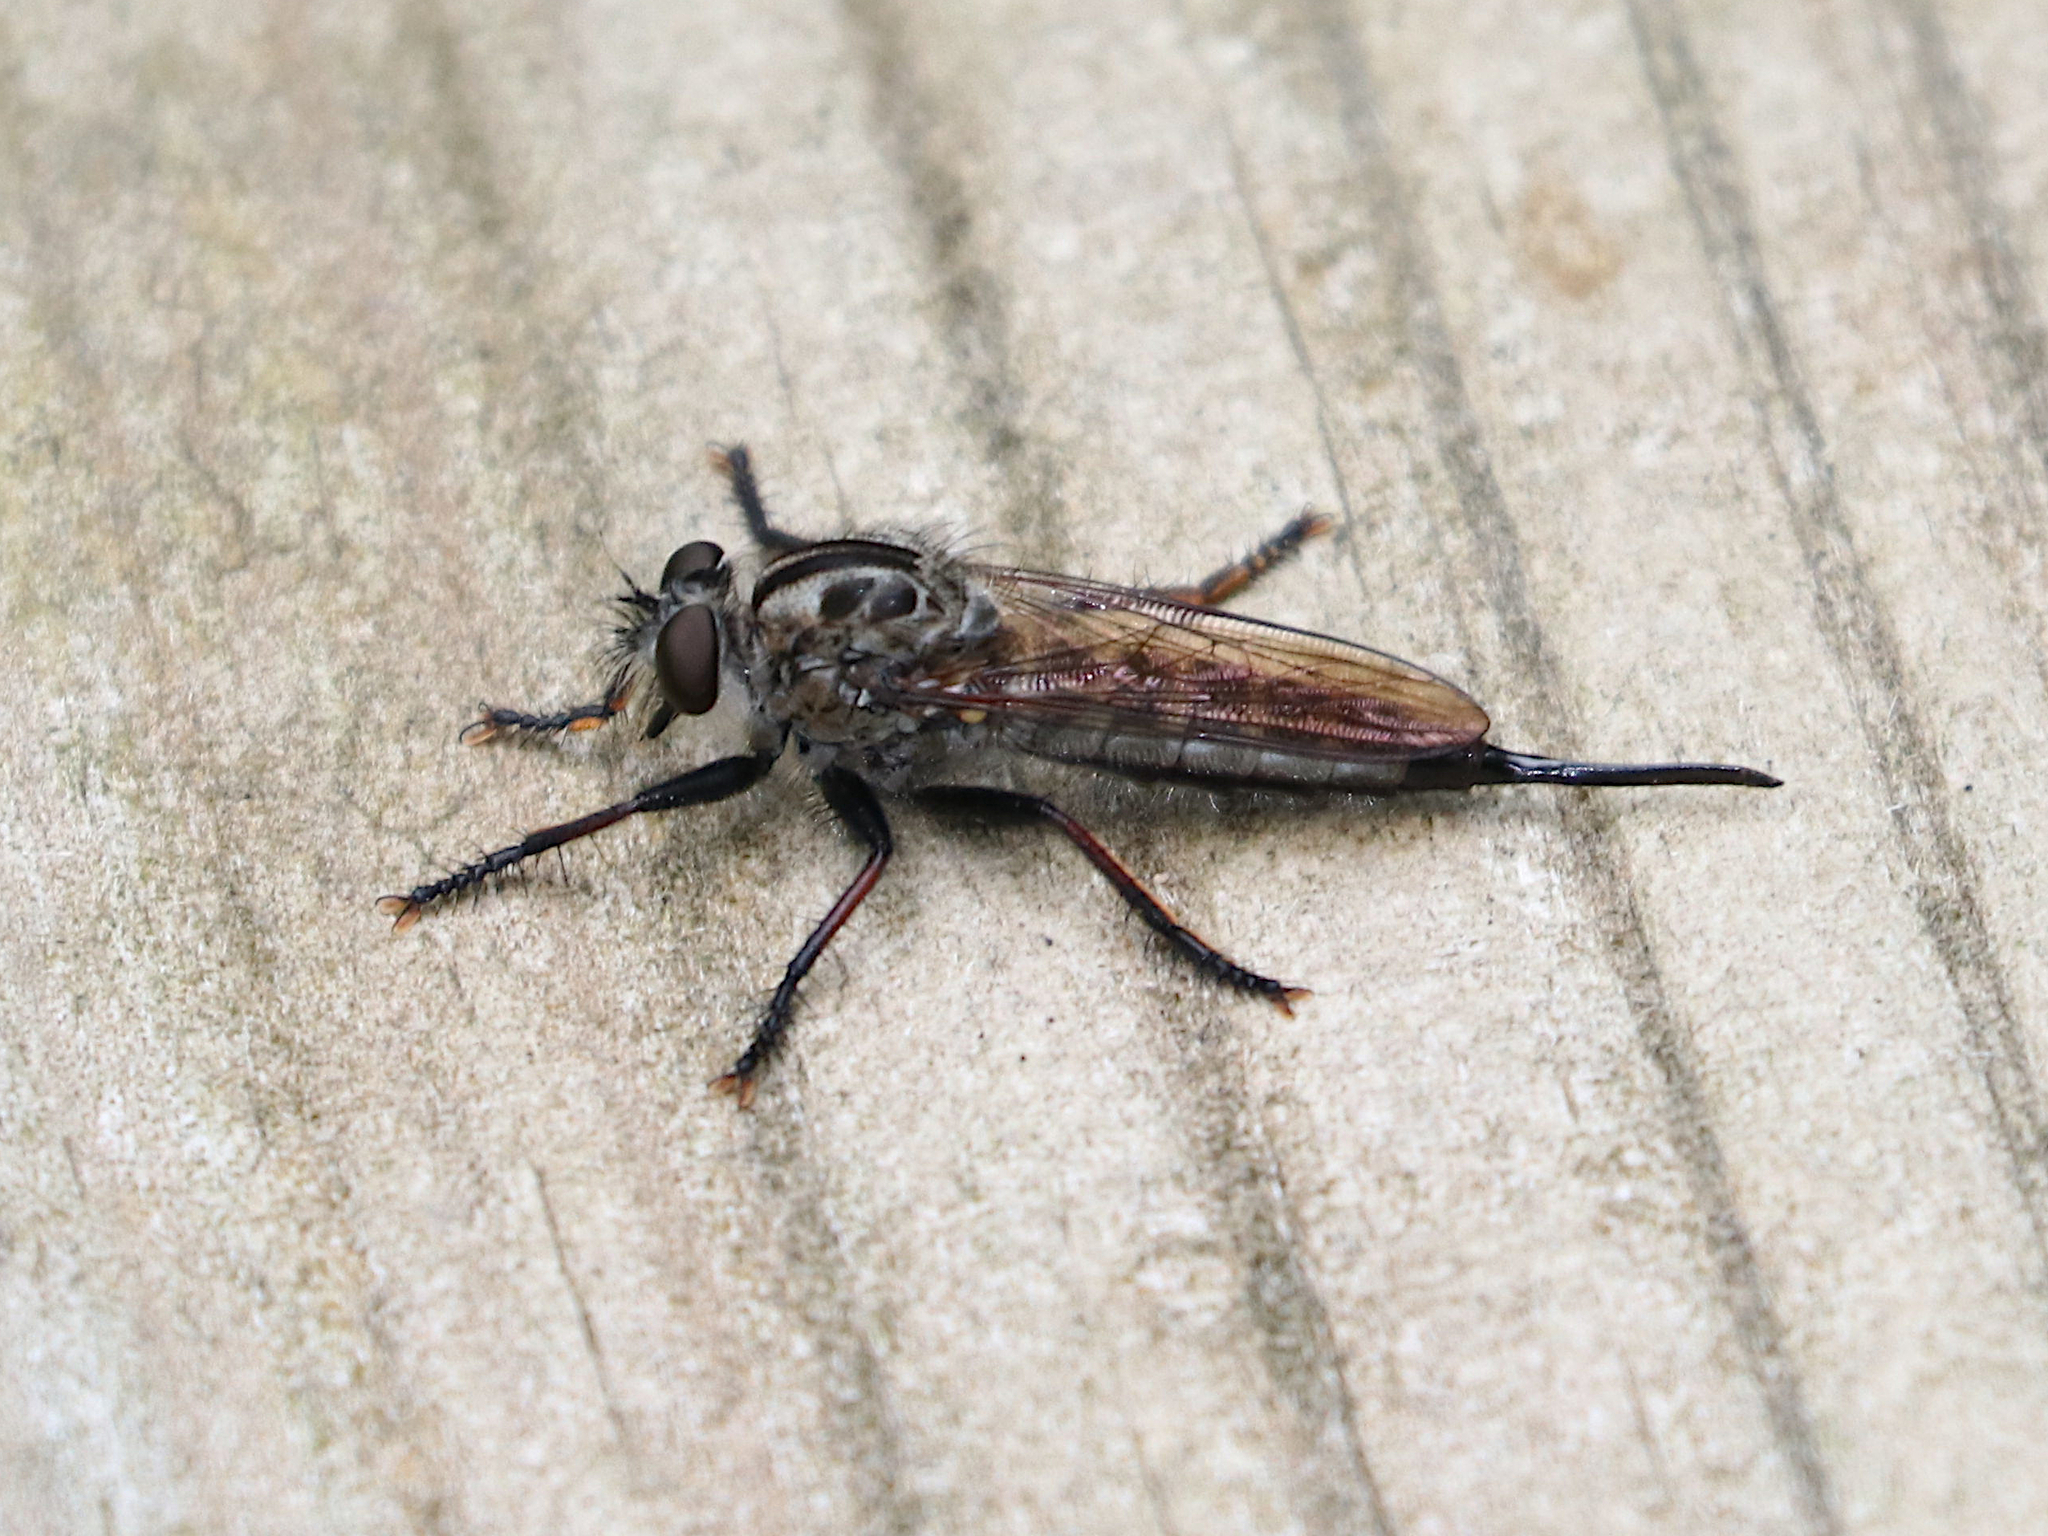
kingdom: Animalia
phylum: Arthropoda
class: Insecta
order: Diptera
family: Asilidae
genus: Efferia
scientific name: Efferia aestuans
